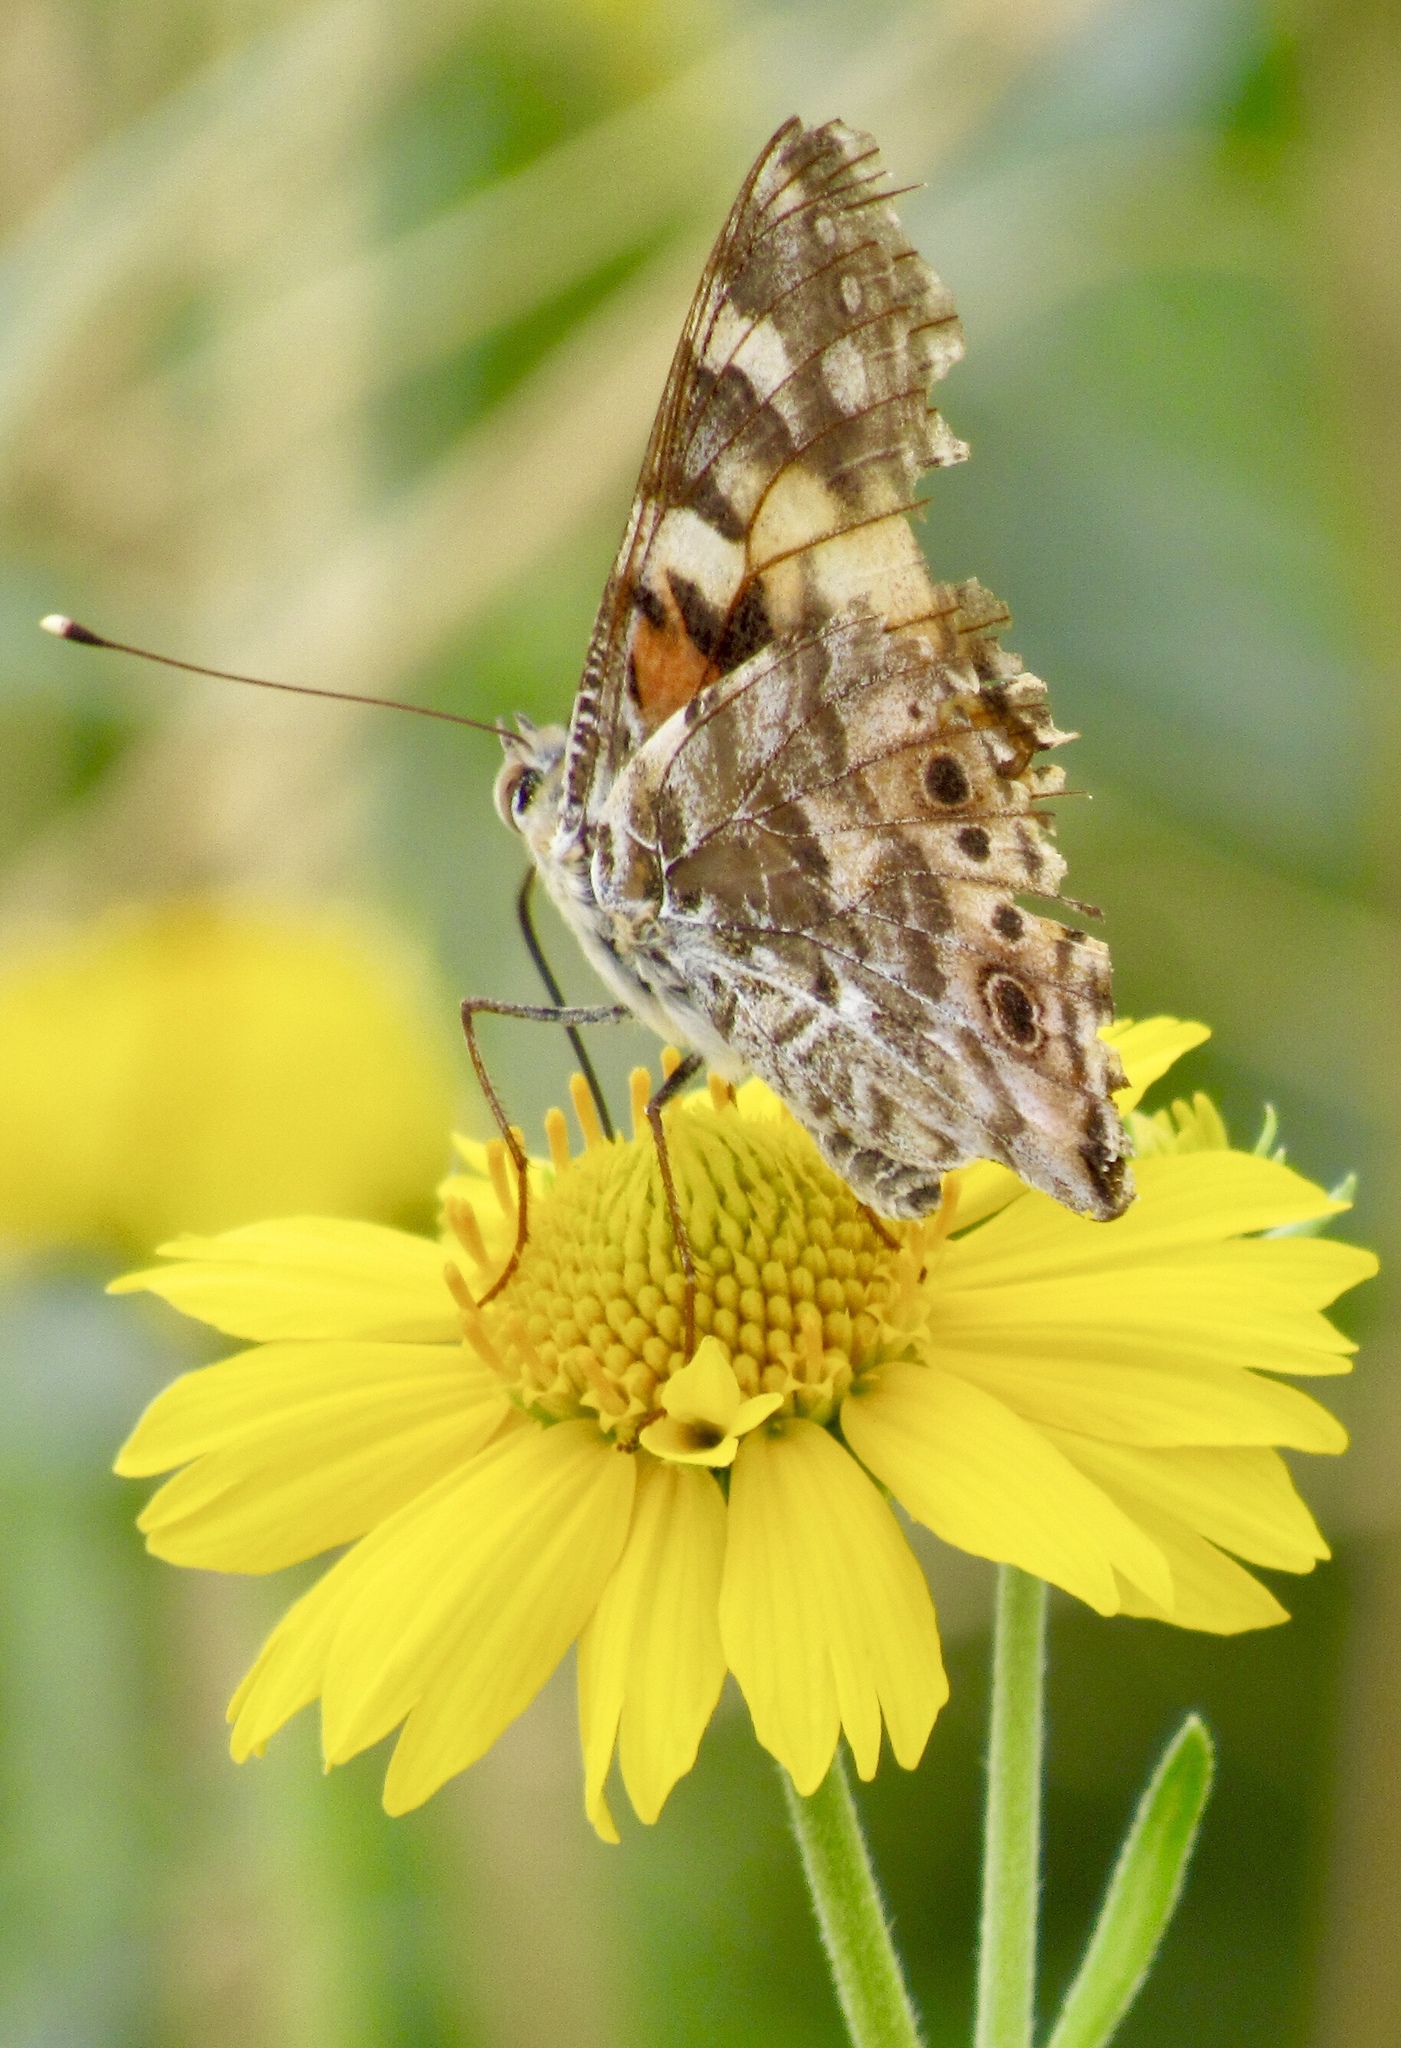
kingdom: Animalia
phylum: Arthropoda
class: Insecta
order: Lepidoptera
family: Nymphalidae
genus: Vanessa
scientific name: Vanessa cardui
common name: Painted lady
